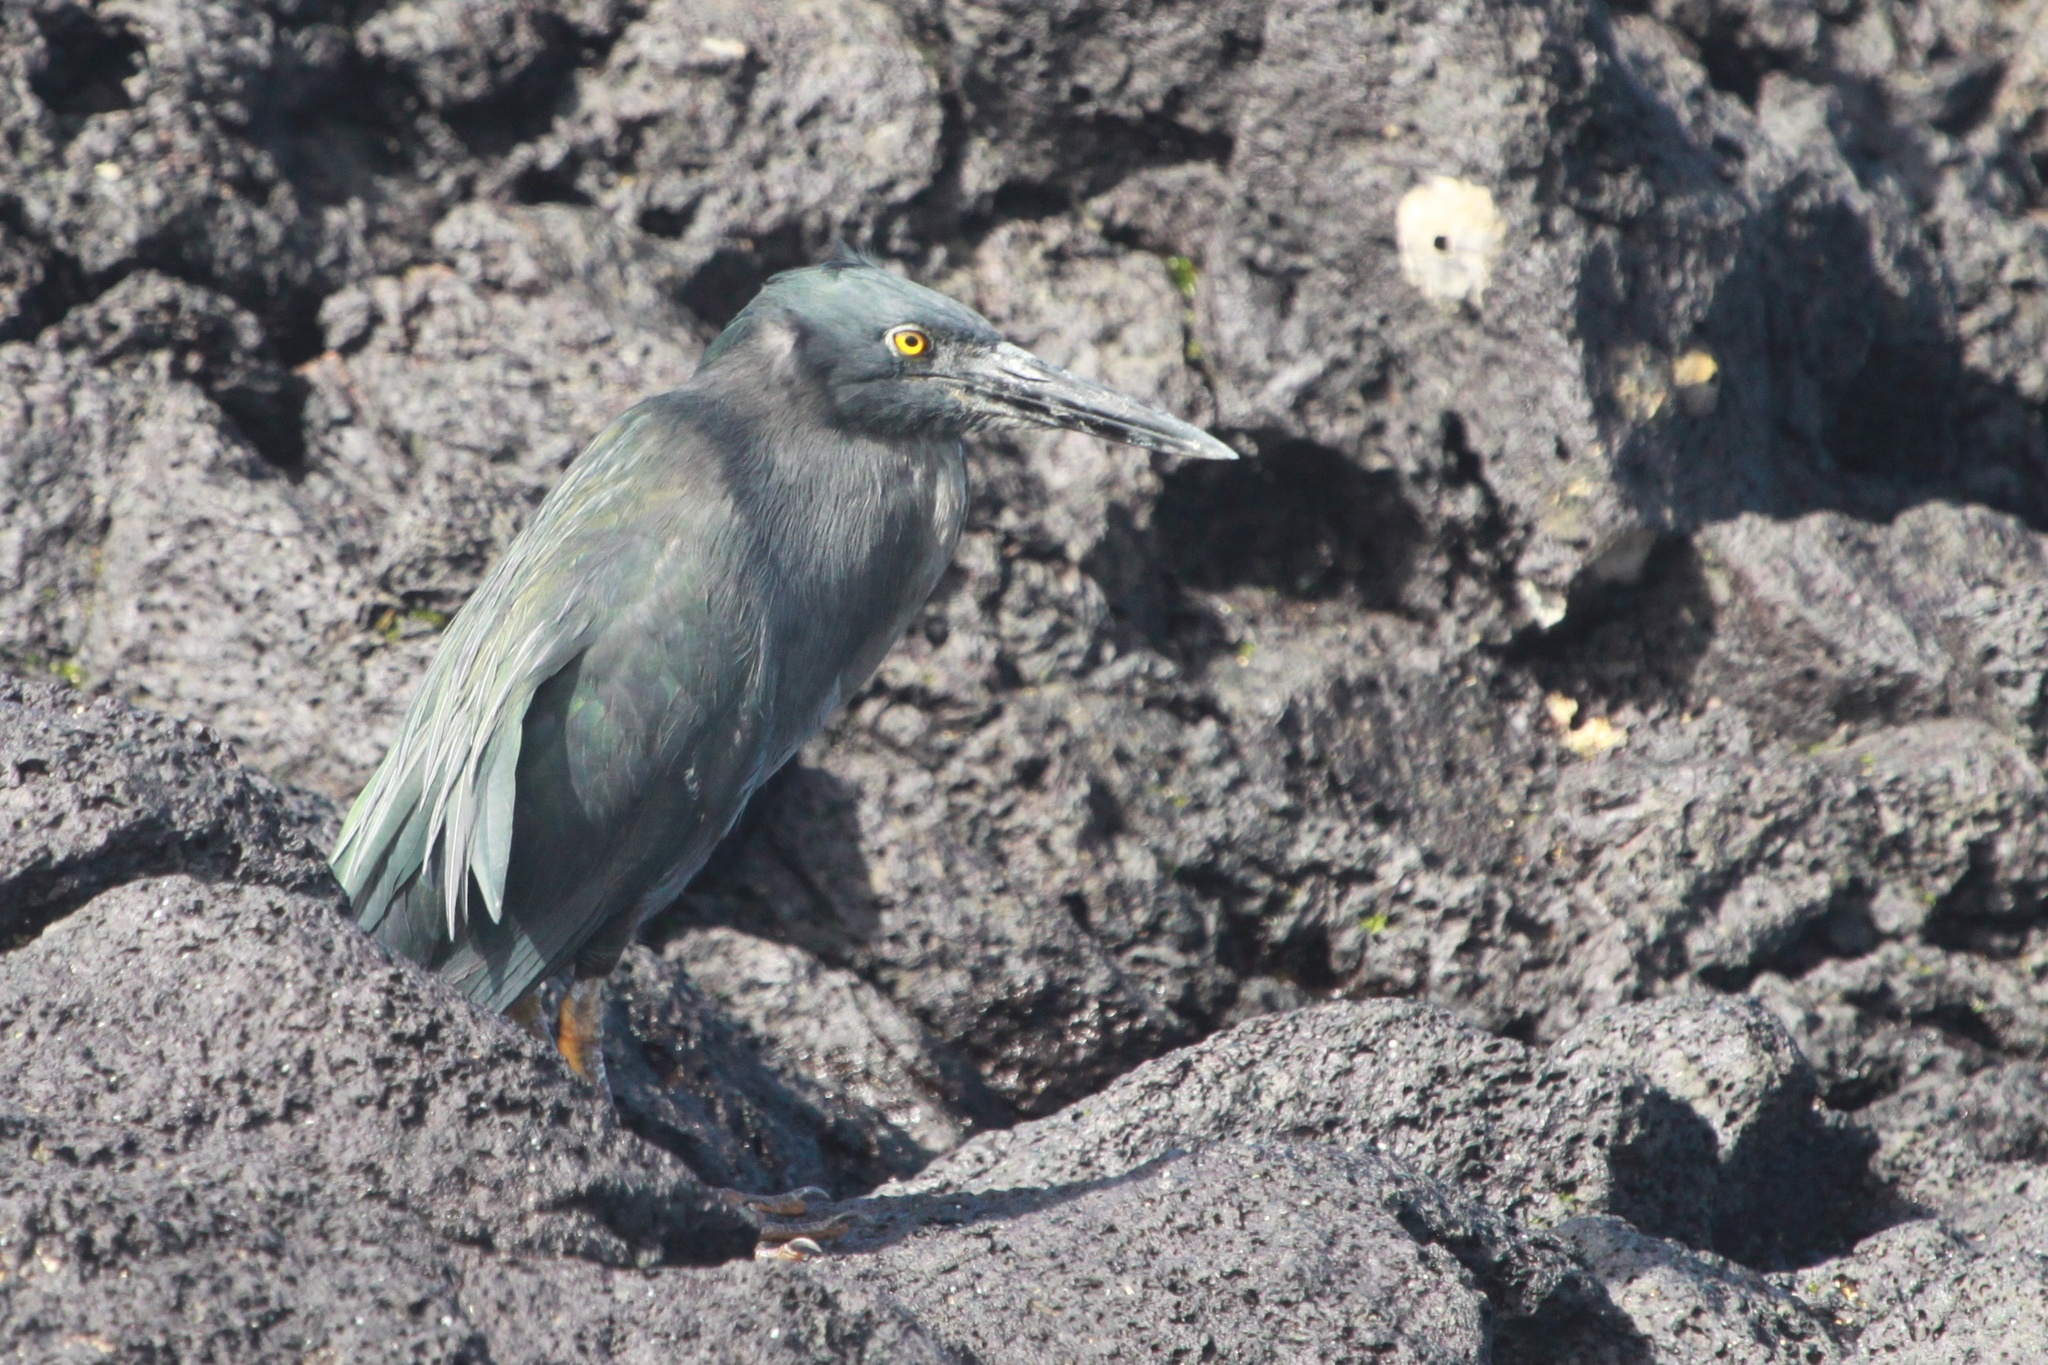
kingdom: Animalia
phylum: Chordata
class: Aves
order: Pelecaniformes
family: Ardeidae
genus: Butorides
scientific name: Butorides striata
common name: Striated heron
